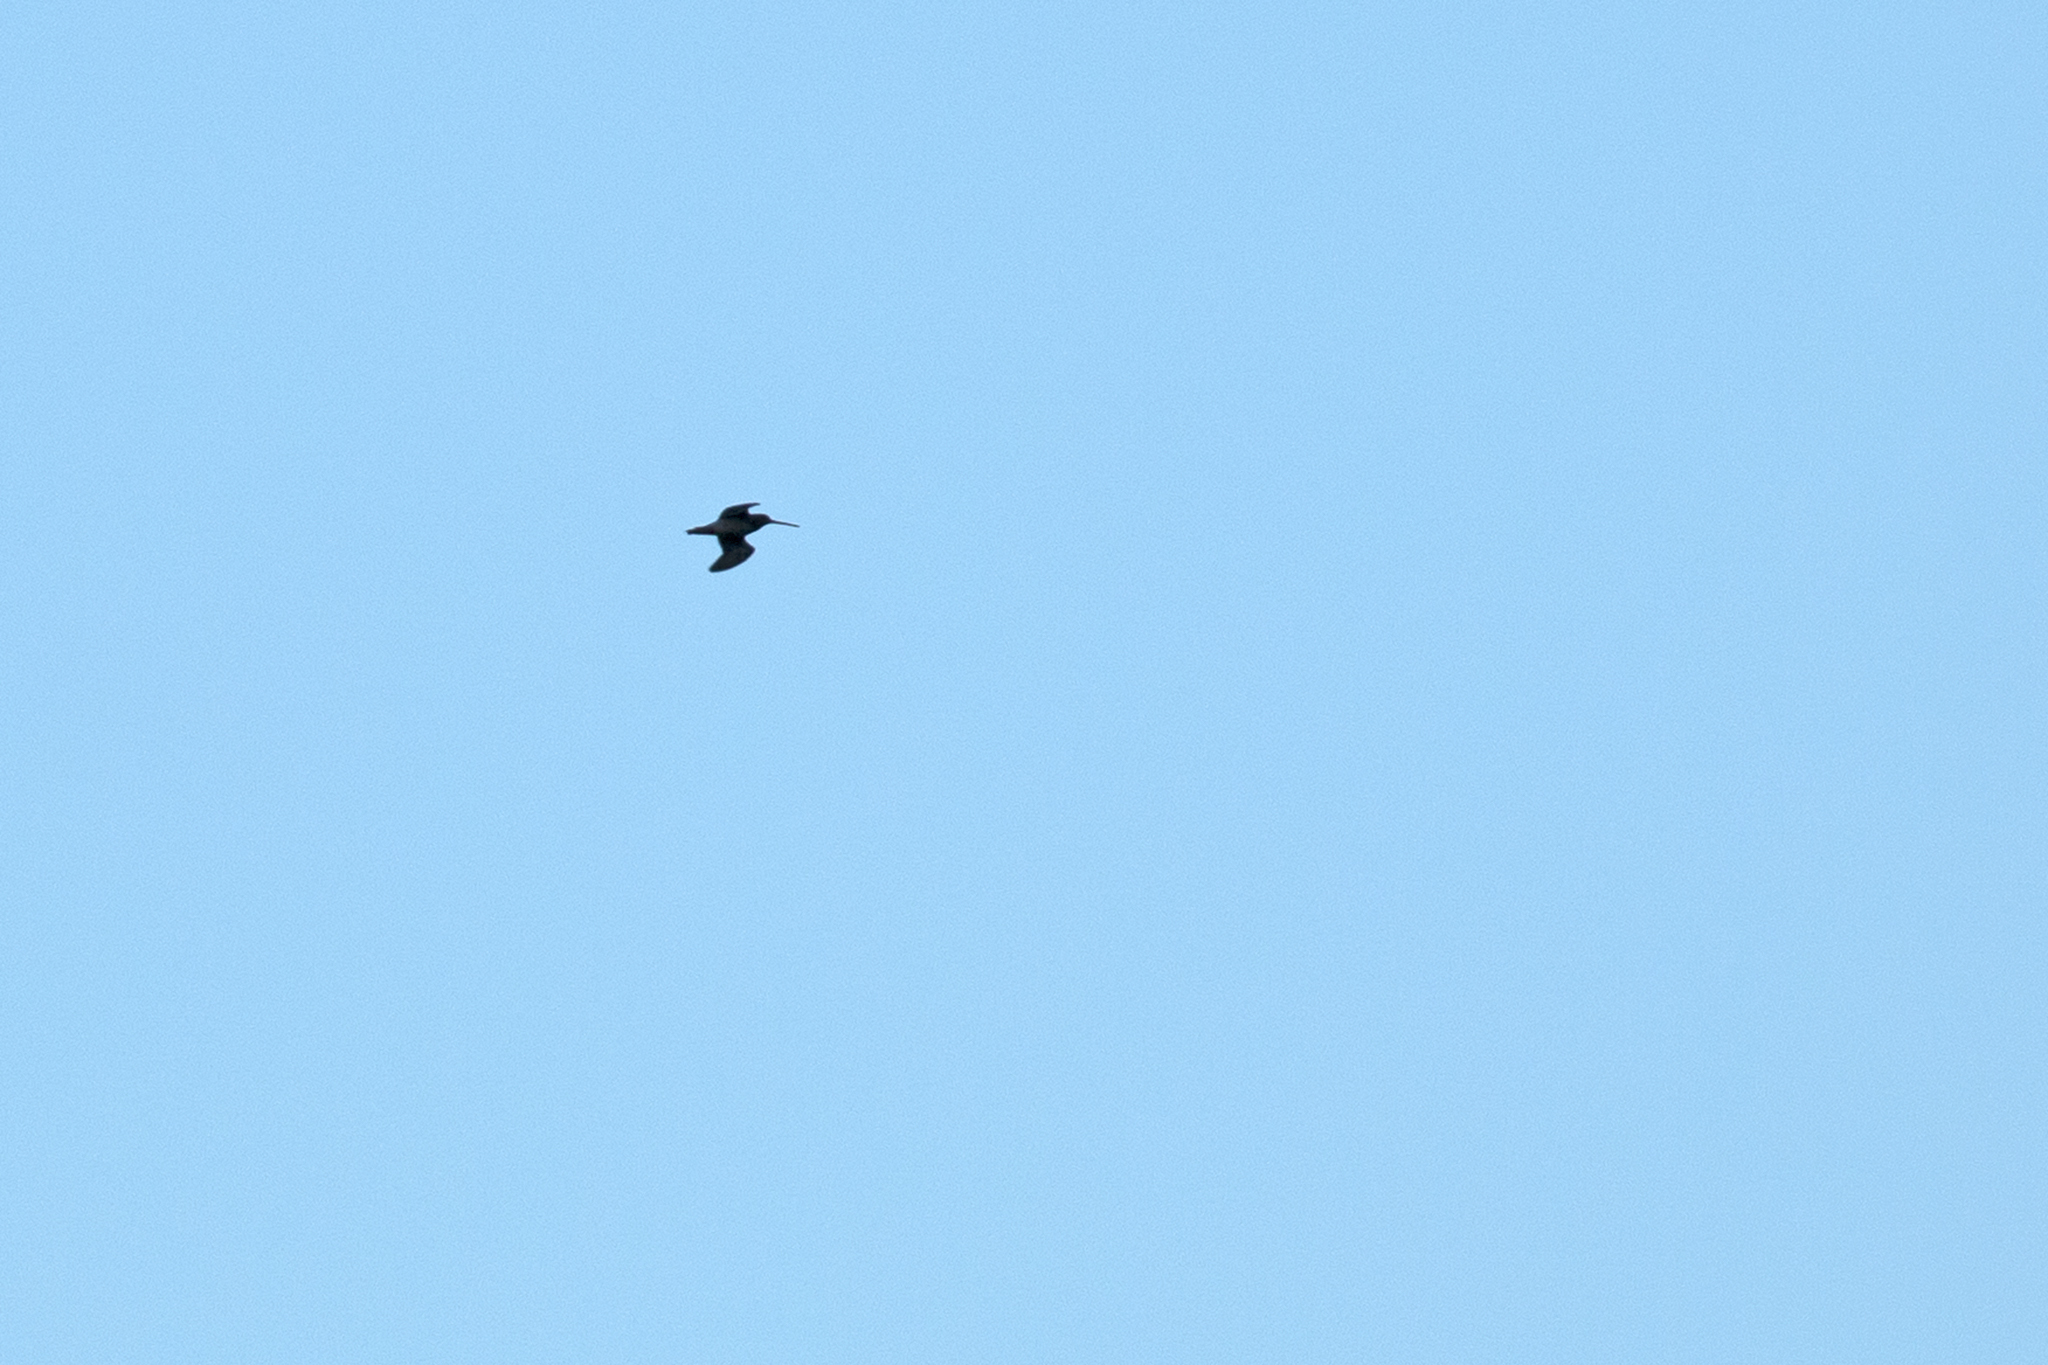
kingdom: Animalia
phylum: Chordata
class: Aves
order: Charadriiformes
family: Scolopacidae
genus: Gallinago
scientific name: Gallinago gallinago
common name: Common snipe
